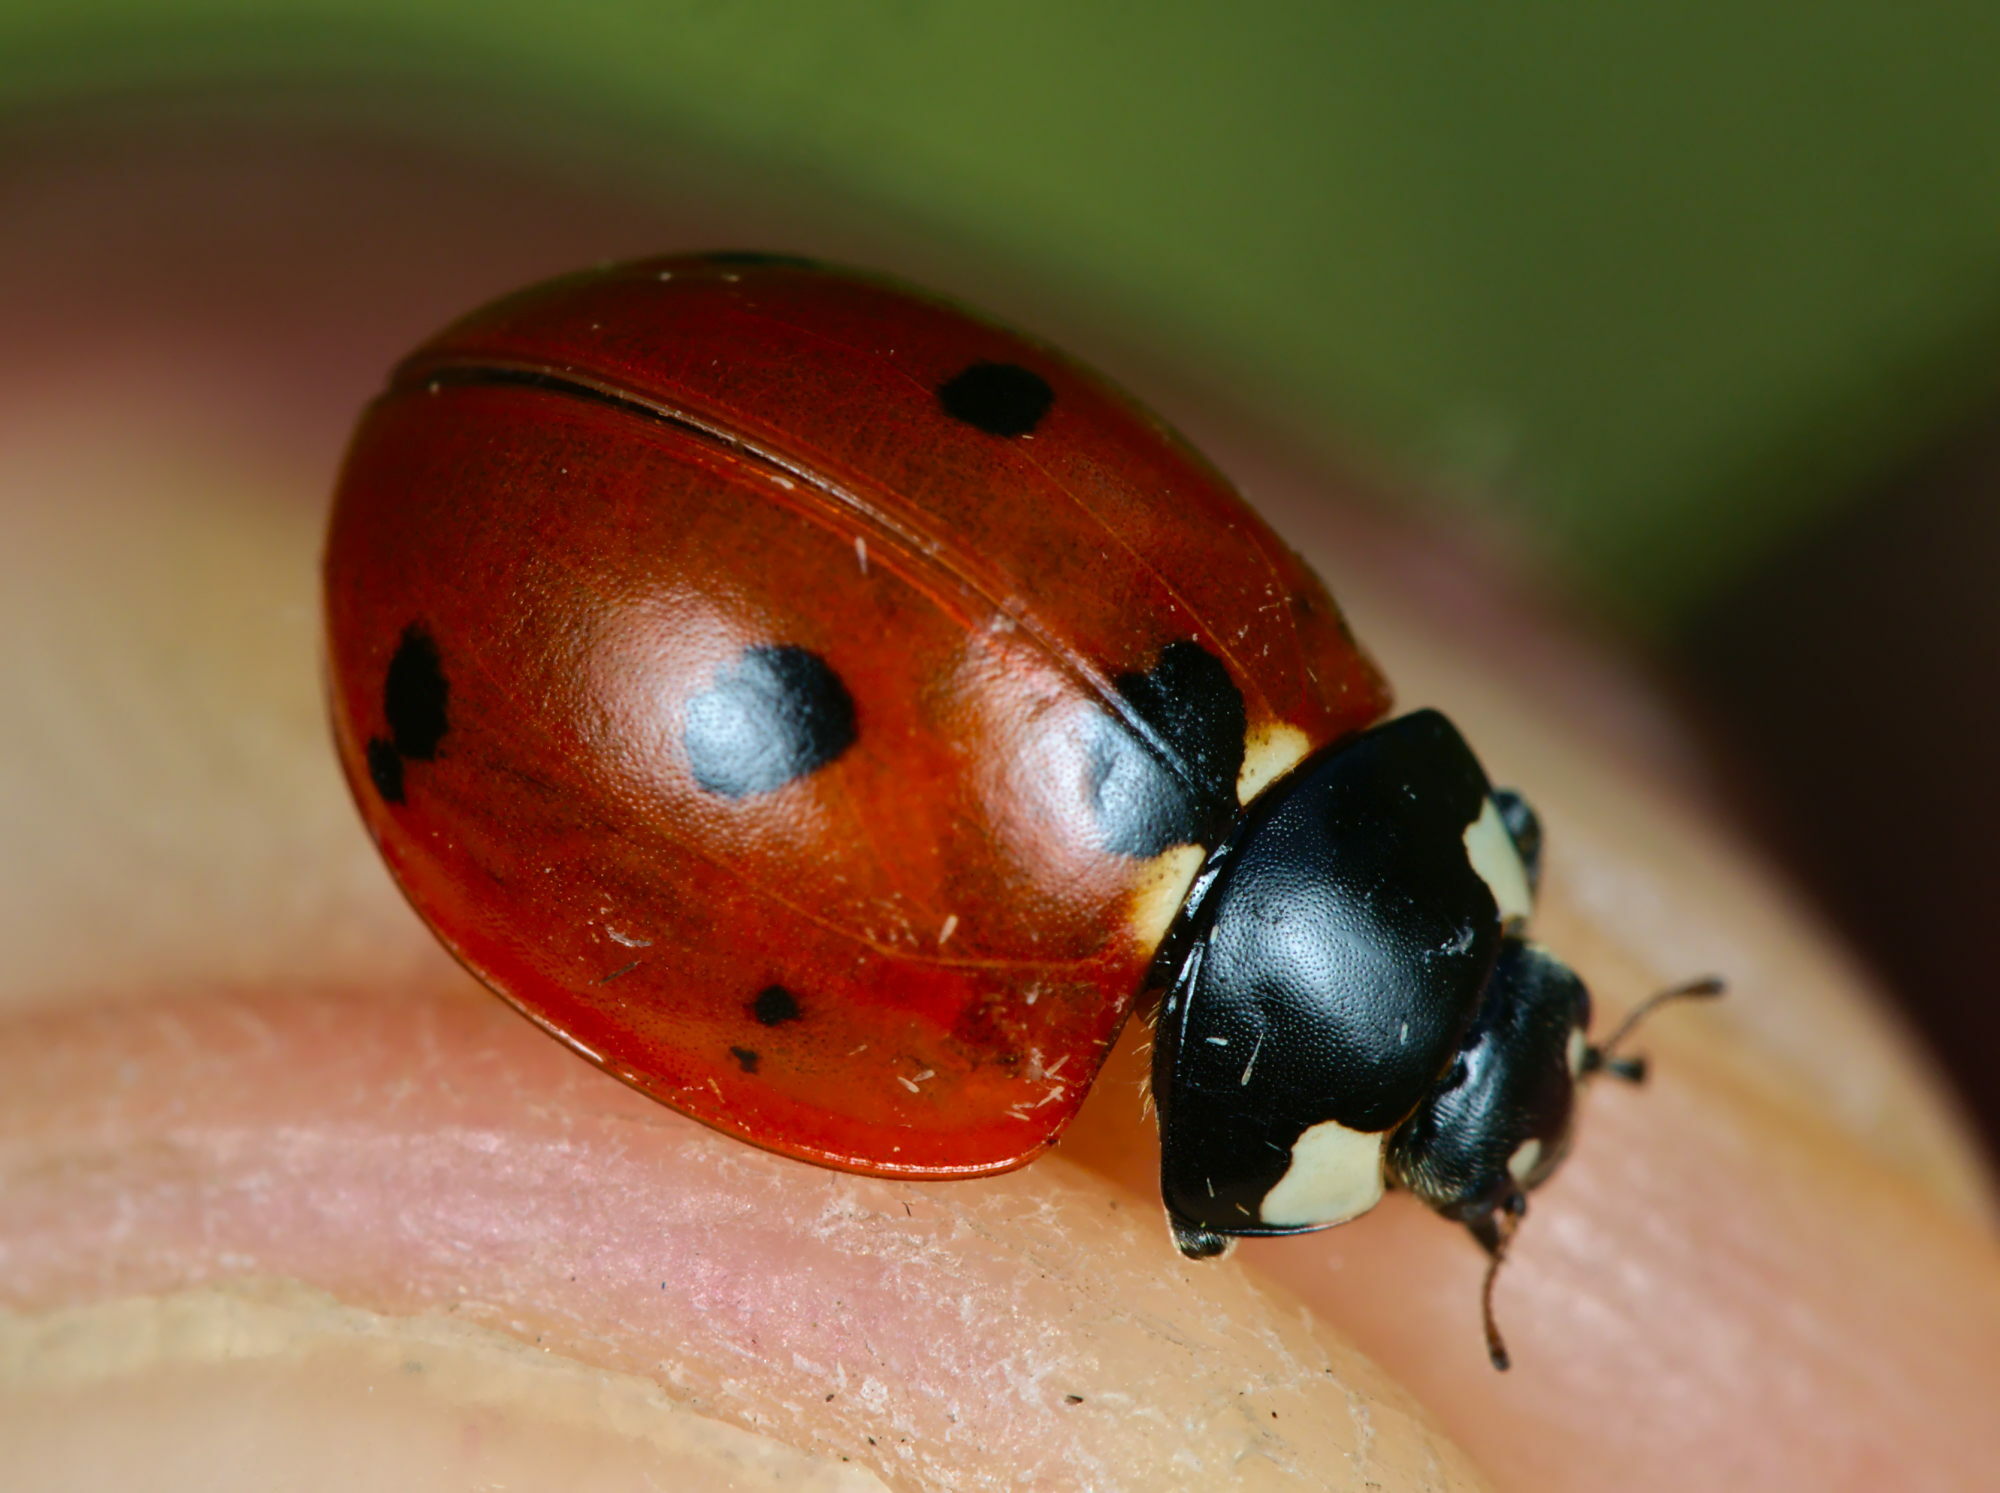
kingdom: Animalia
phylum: Arthropoda
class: Insecta
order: Coleoptera
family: Coccinellidae
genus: Coccinella
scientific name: Coccinella septempunctata
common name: Sevenspotted lady beetle
